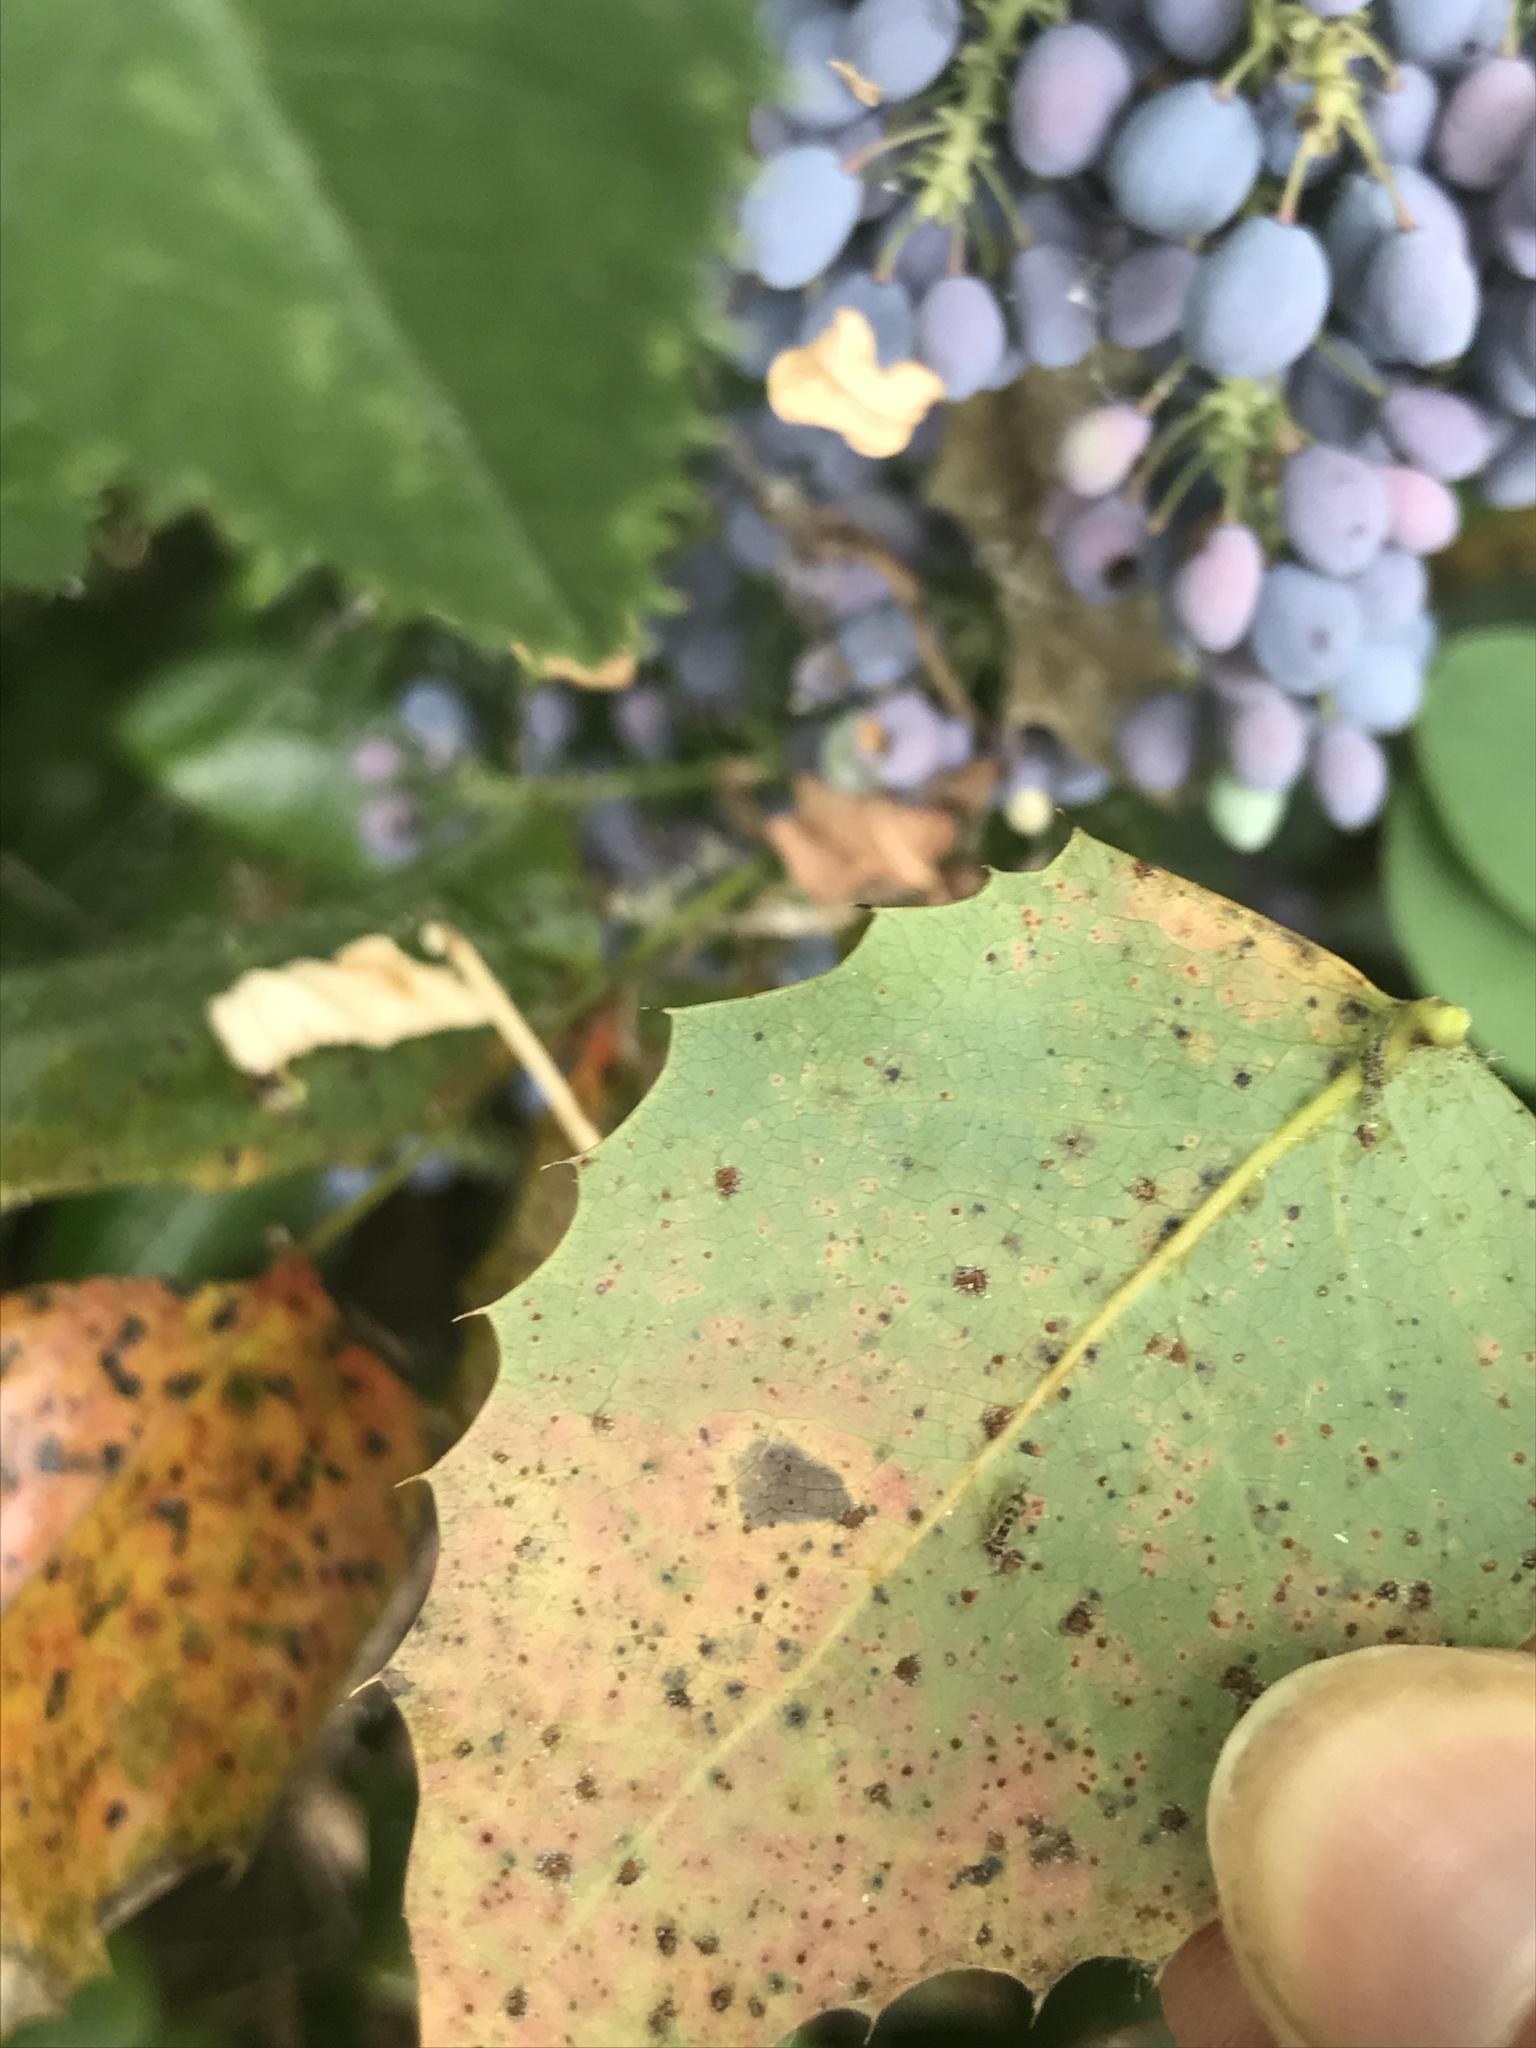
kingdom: Fungi
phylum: Basidiomycota
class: Pucciniomycetes
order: Pucciniales
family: Pucciniaceae
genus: Cumminsiella
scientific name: Cumminsiella mirabilissima
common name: Mahonia rust
